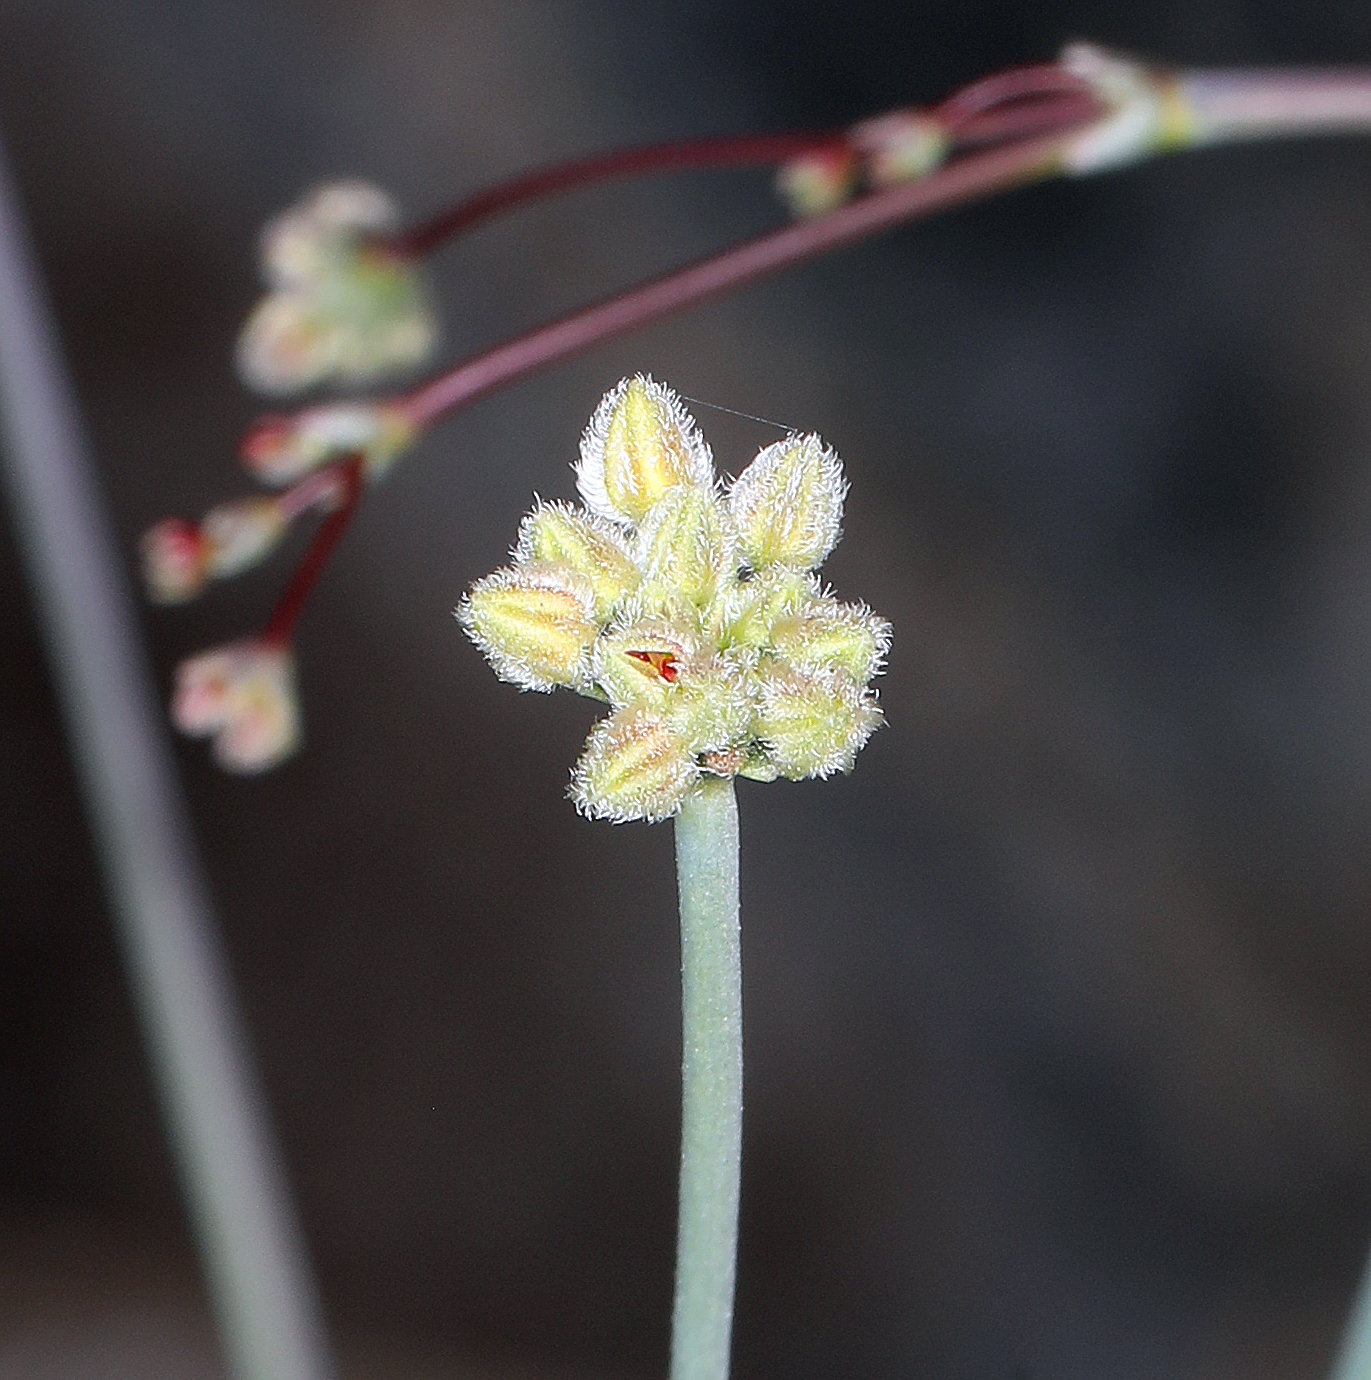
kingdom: Plantae
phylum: Tracheophyta
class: Magnoliopsida
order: Caryophyllales
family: Polygonaceae
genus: Eriogonum
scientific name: Eriogonum inflatum
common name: Desert trumpet
